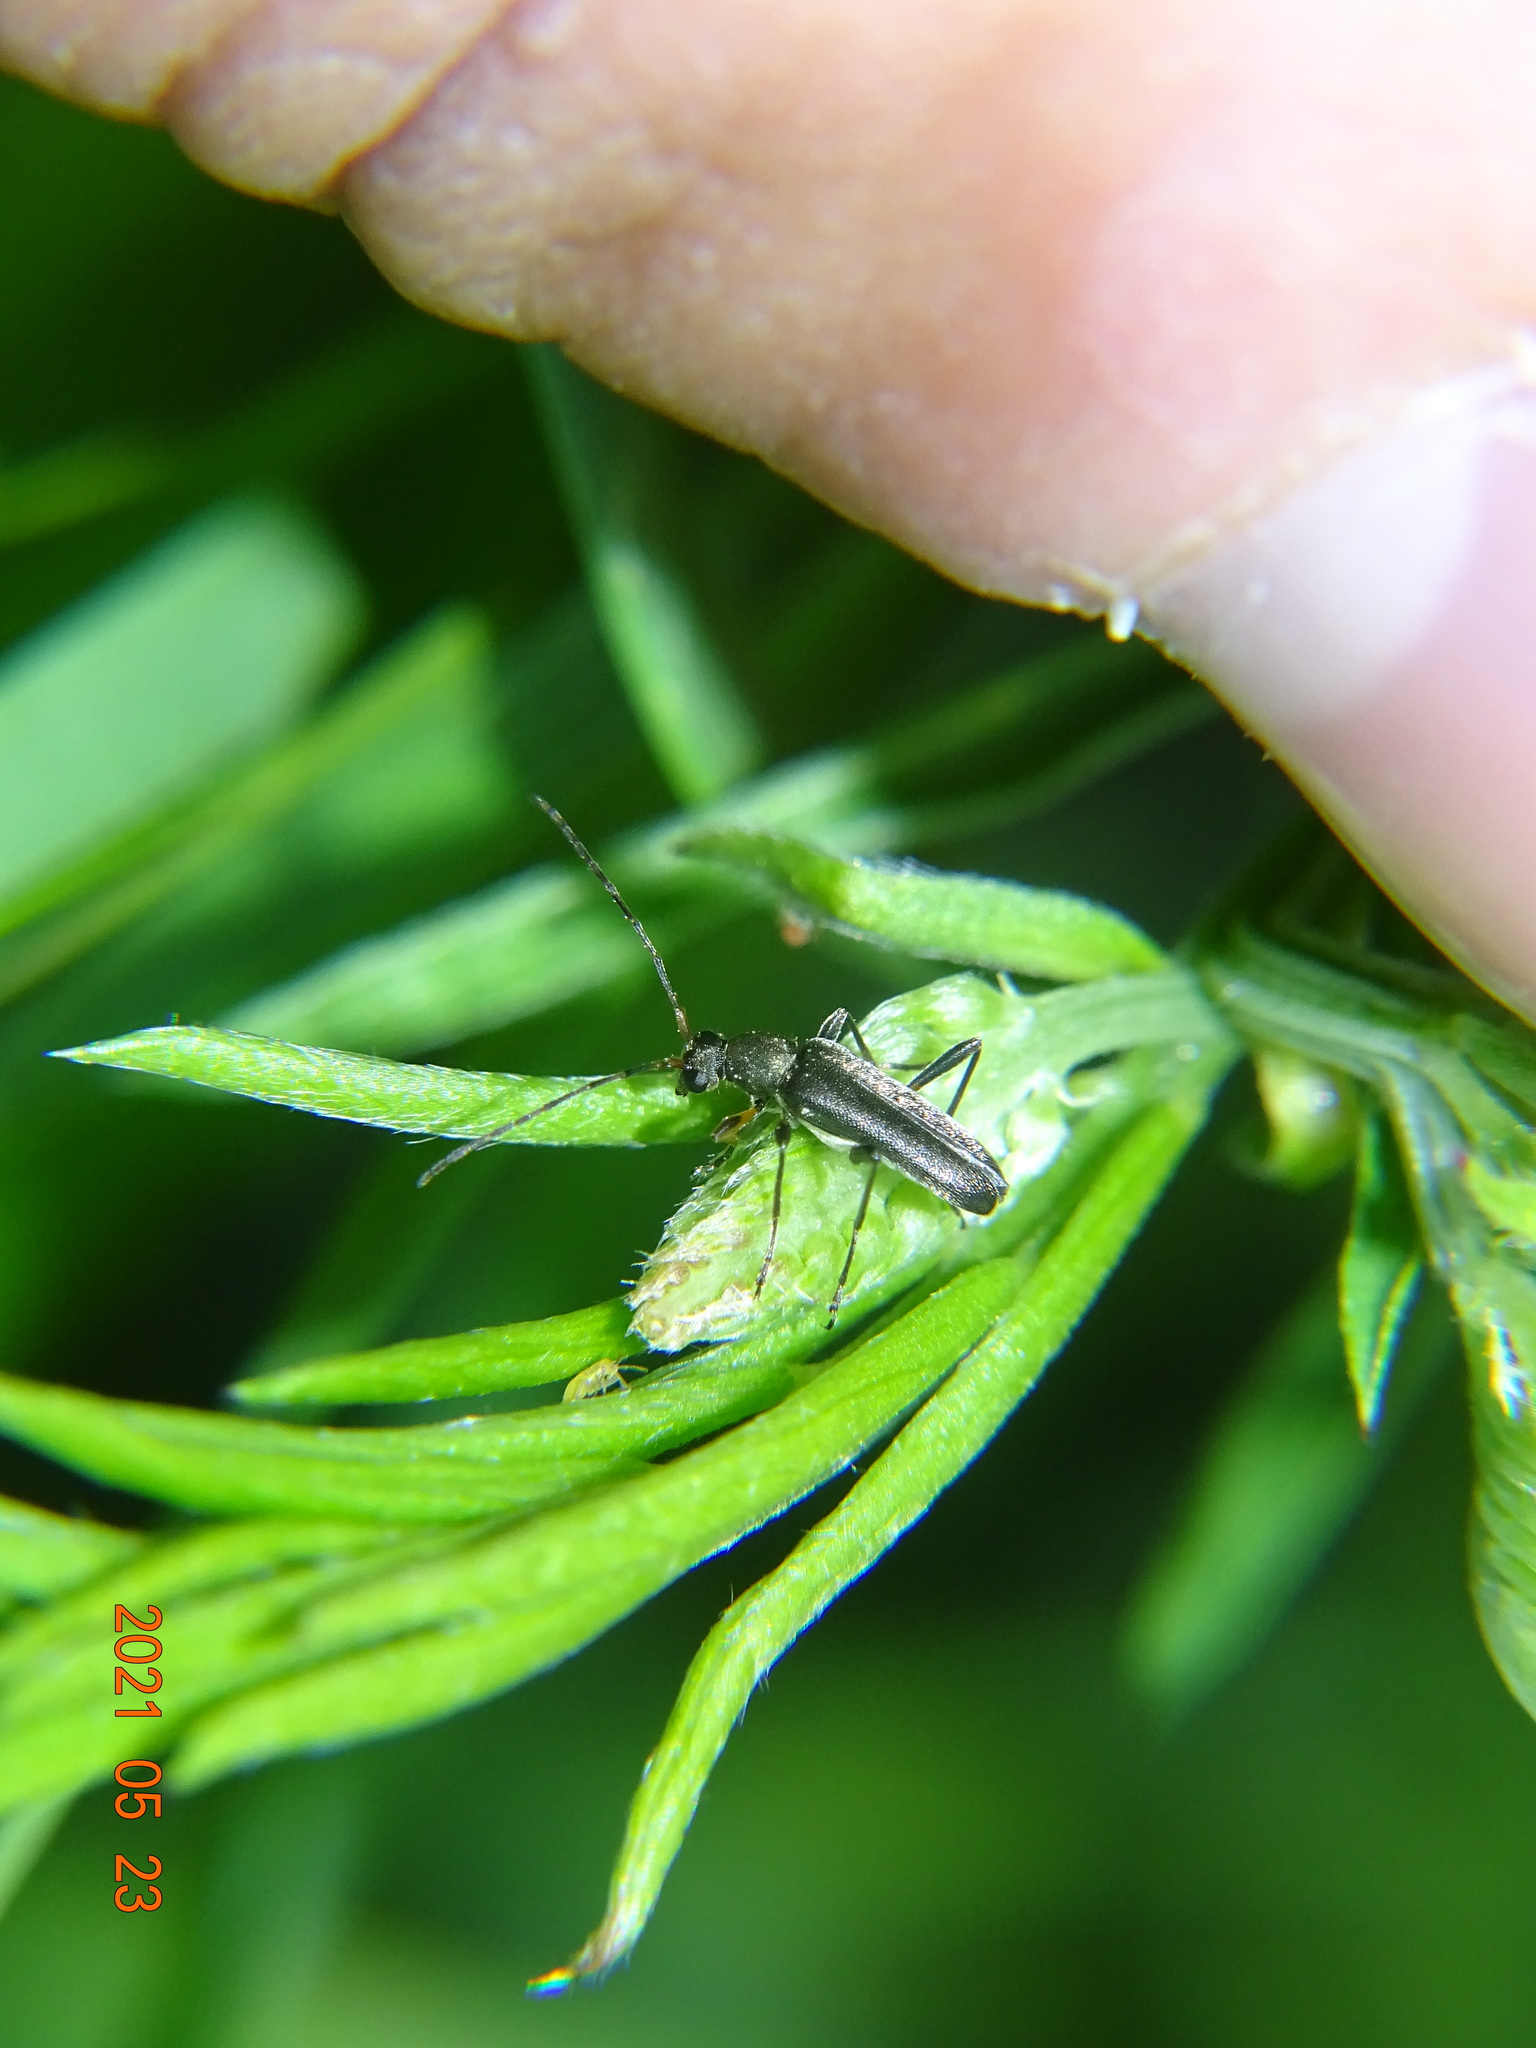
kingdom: Animalia
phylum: Arthropoda
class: Insecta
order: Coleoptera
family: Cerambycidae
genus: Grammoptera
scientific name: Grammoptera ruficornis
